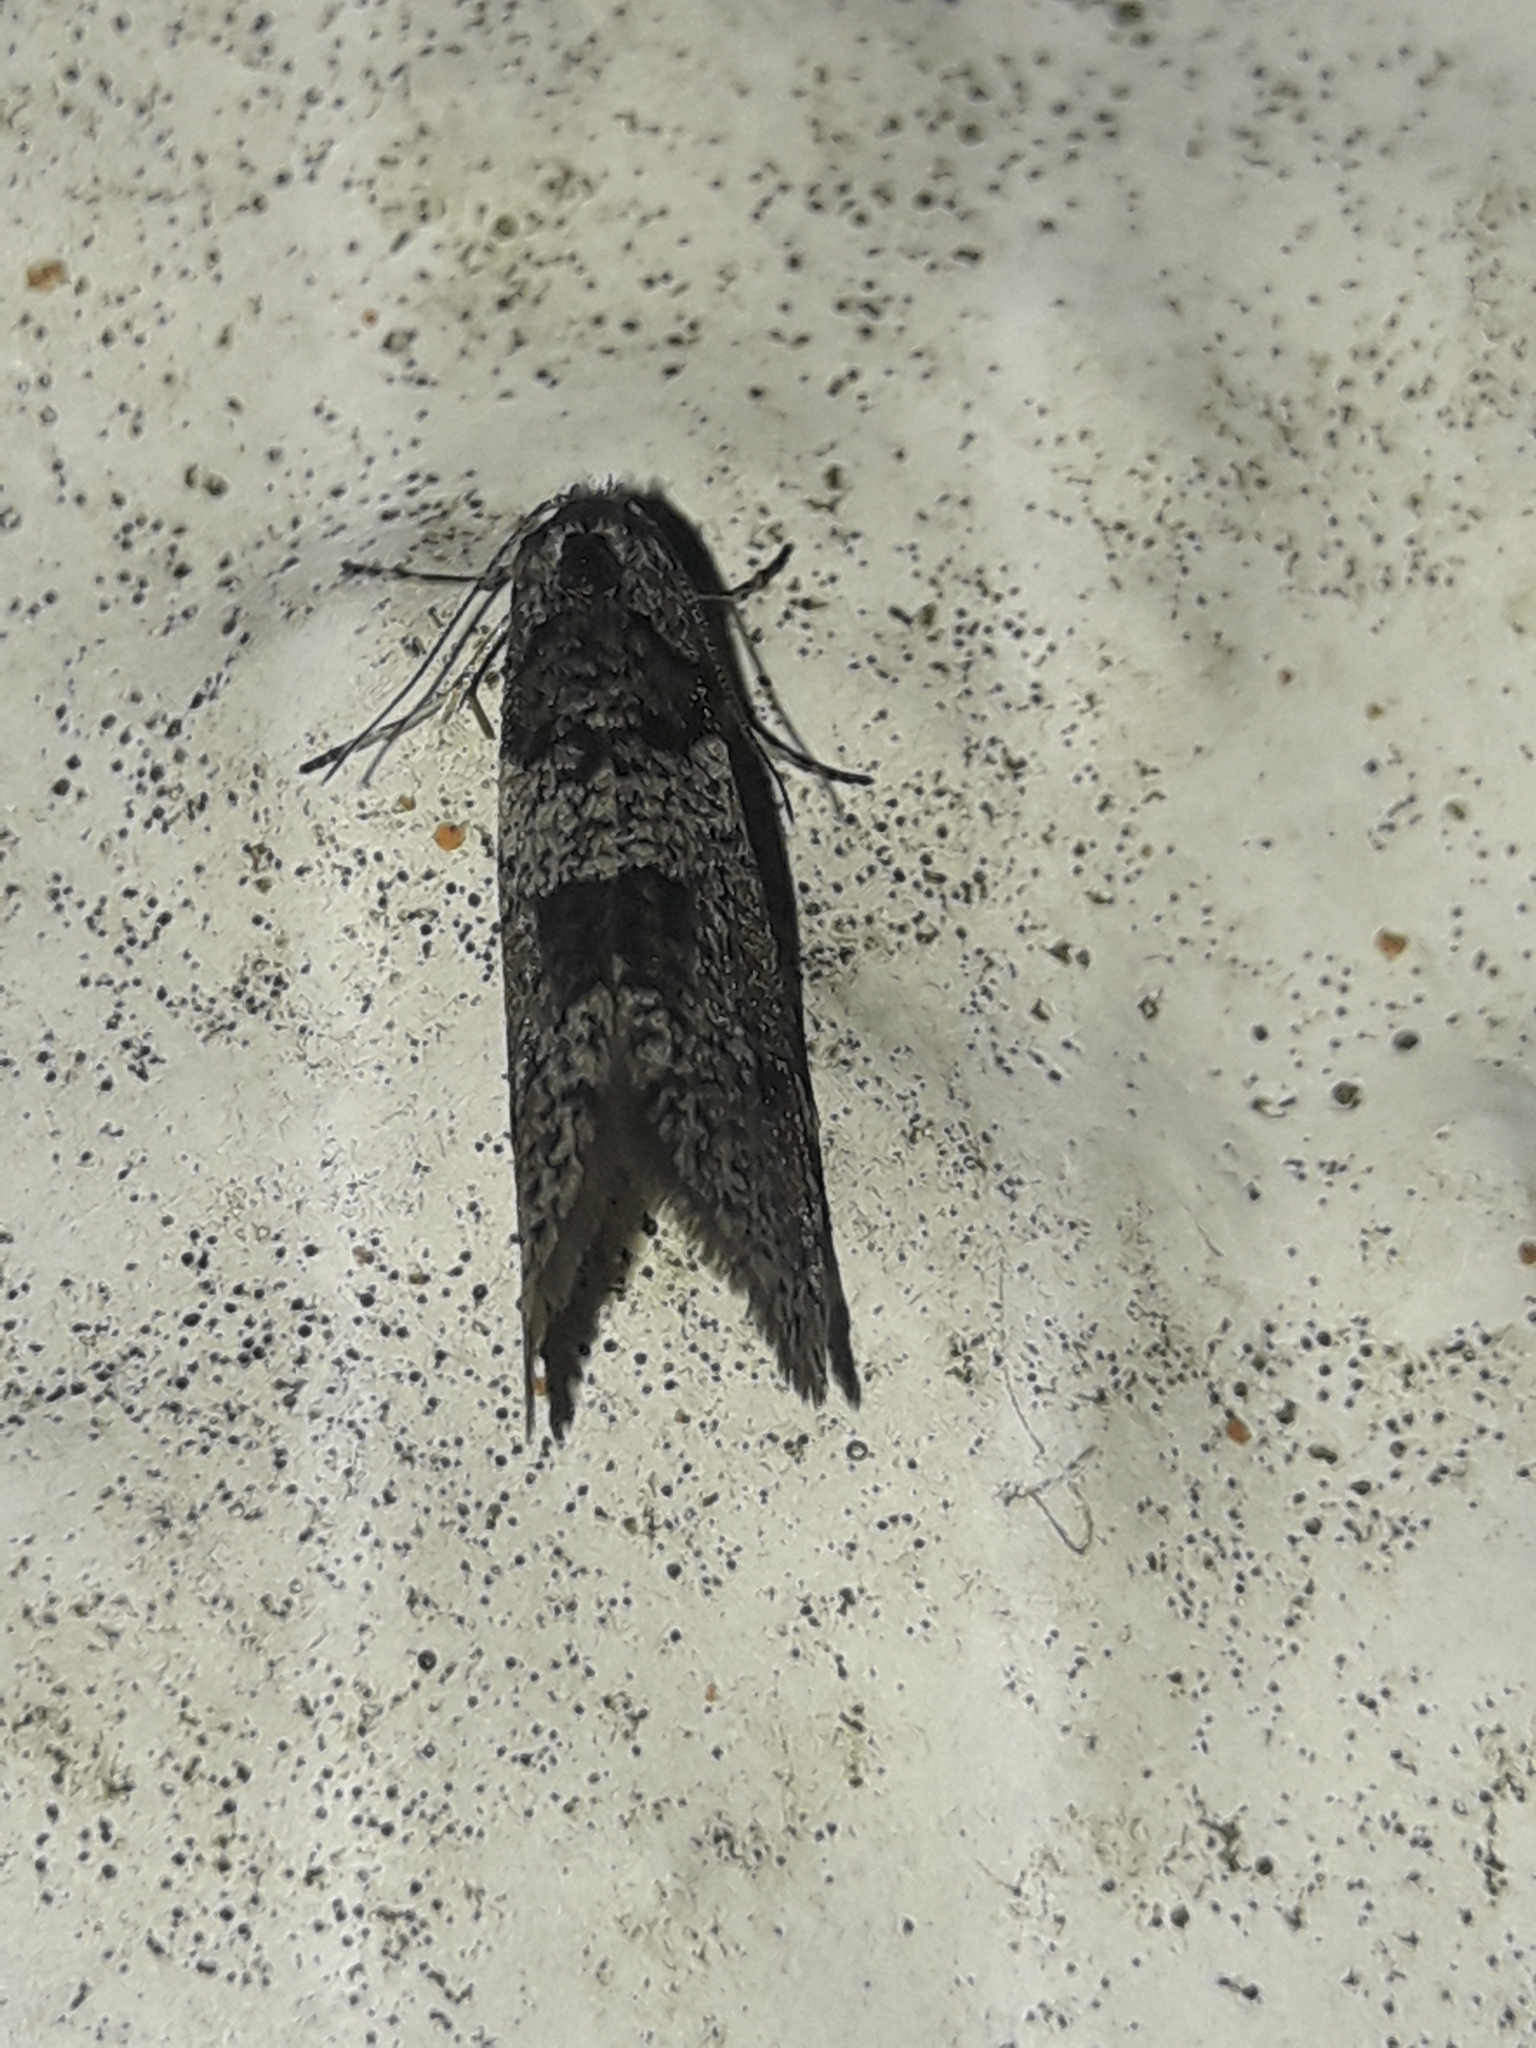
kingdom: Animalia
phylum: Arthropoda
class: Insecta
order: Lepidoptera
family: Psychidae
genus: Lepidoscia
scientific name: Lepidoscia heliochares
